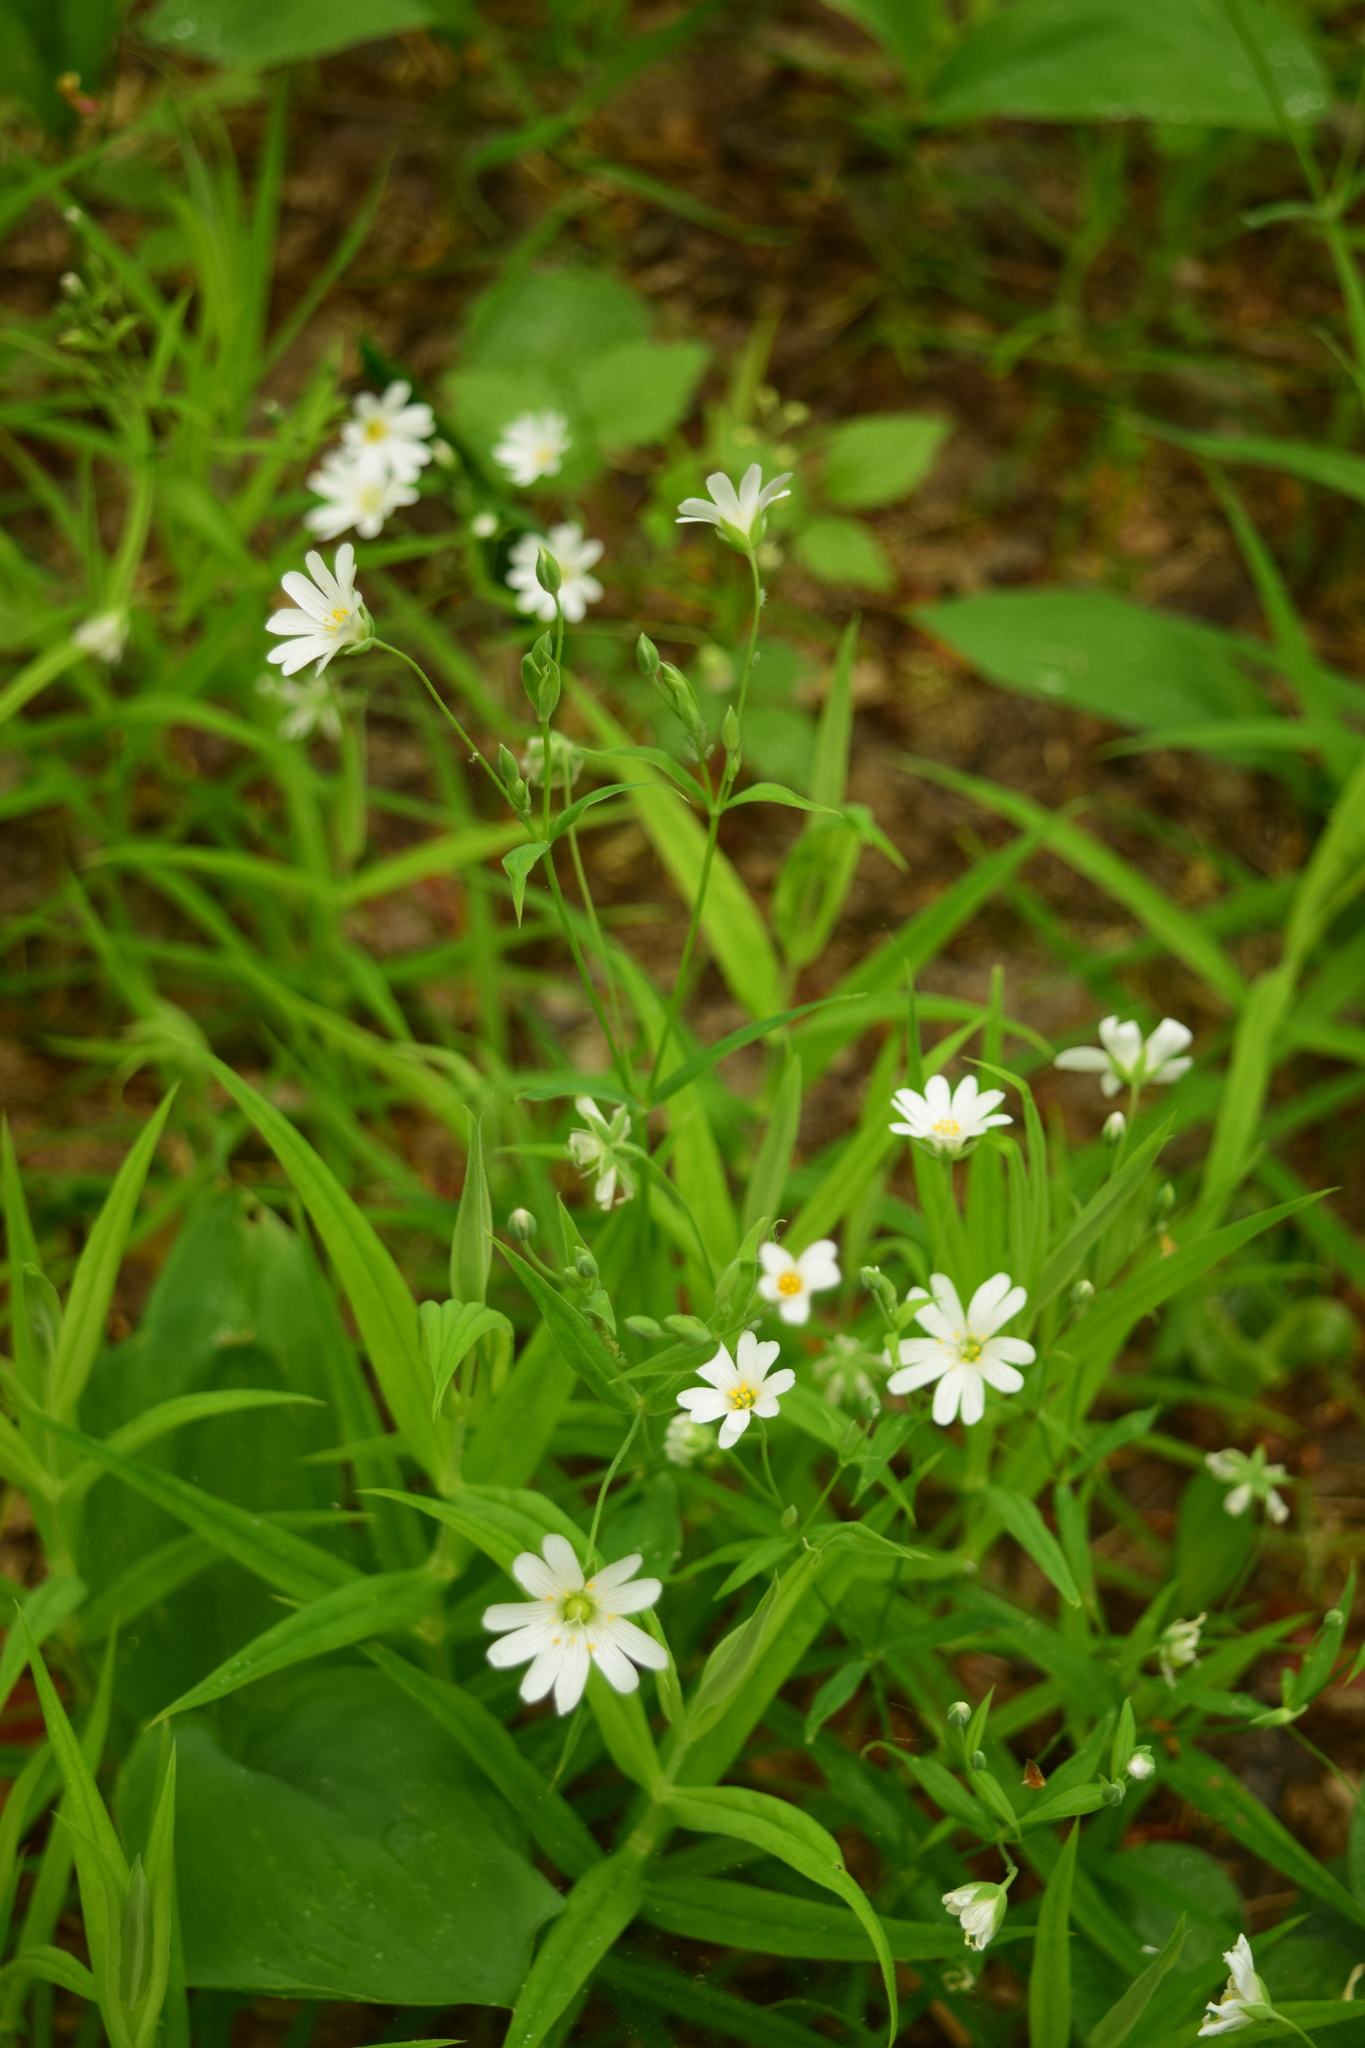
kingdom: Plantae
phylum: Tracheophyta
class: Magnoliopsida
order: Caryophyllales
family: Caryophyllaceae
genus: Rabelera
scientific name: Rabelera holostea
